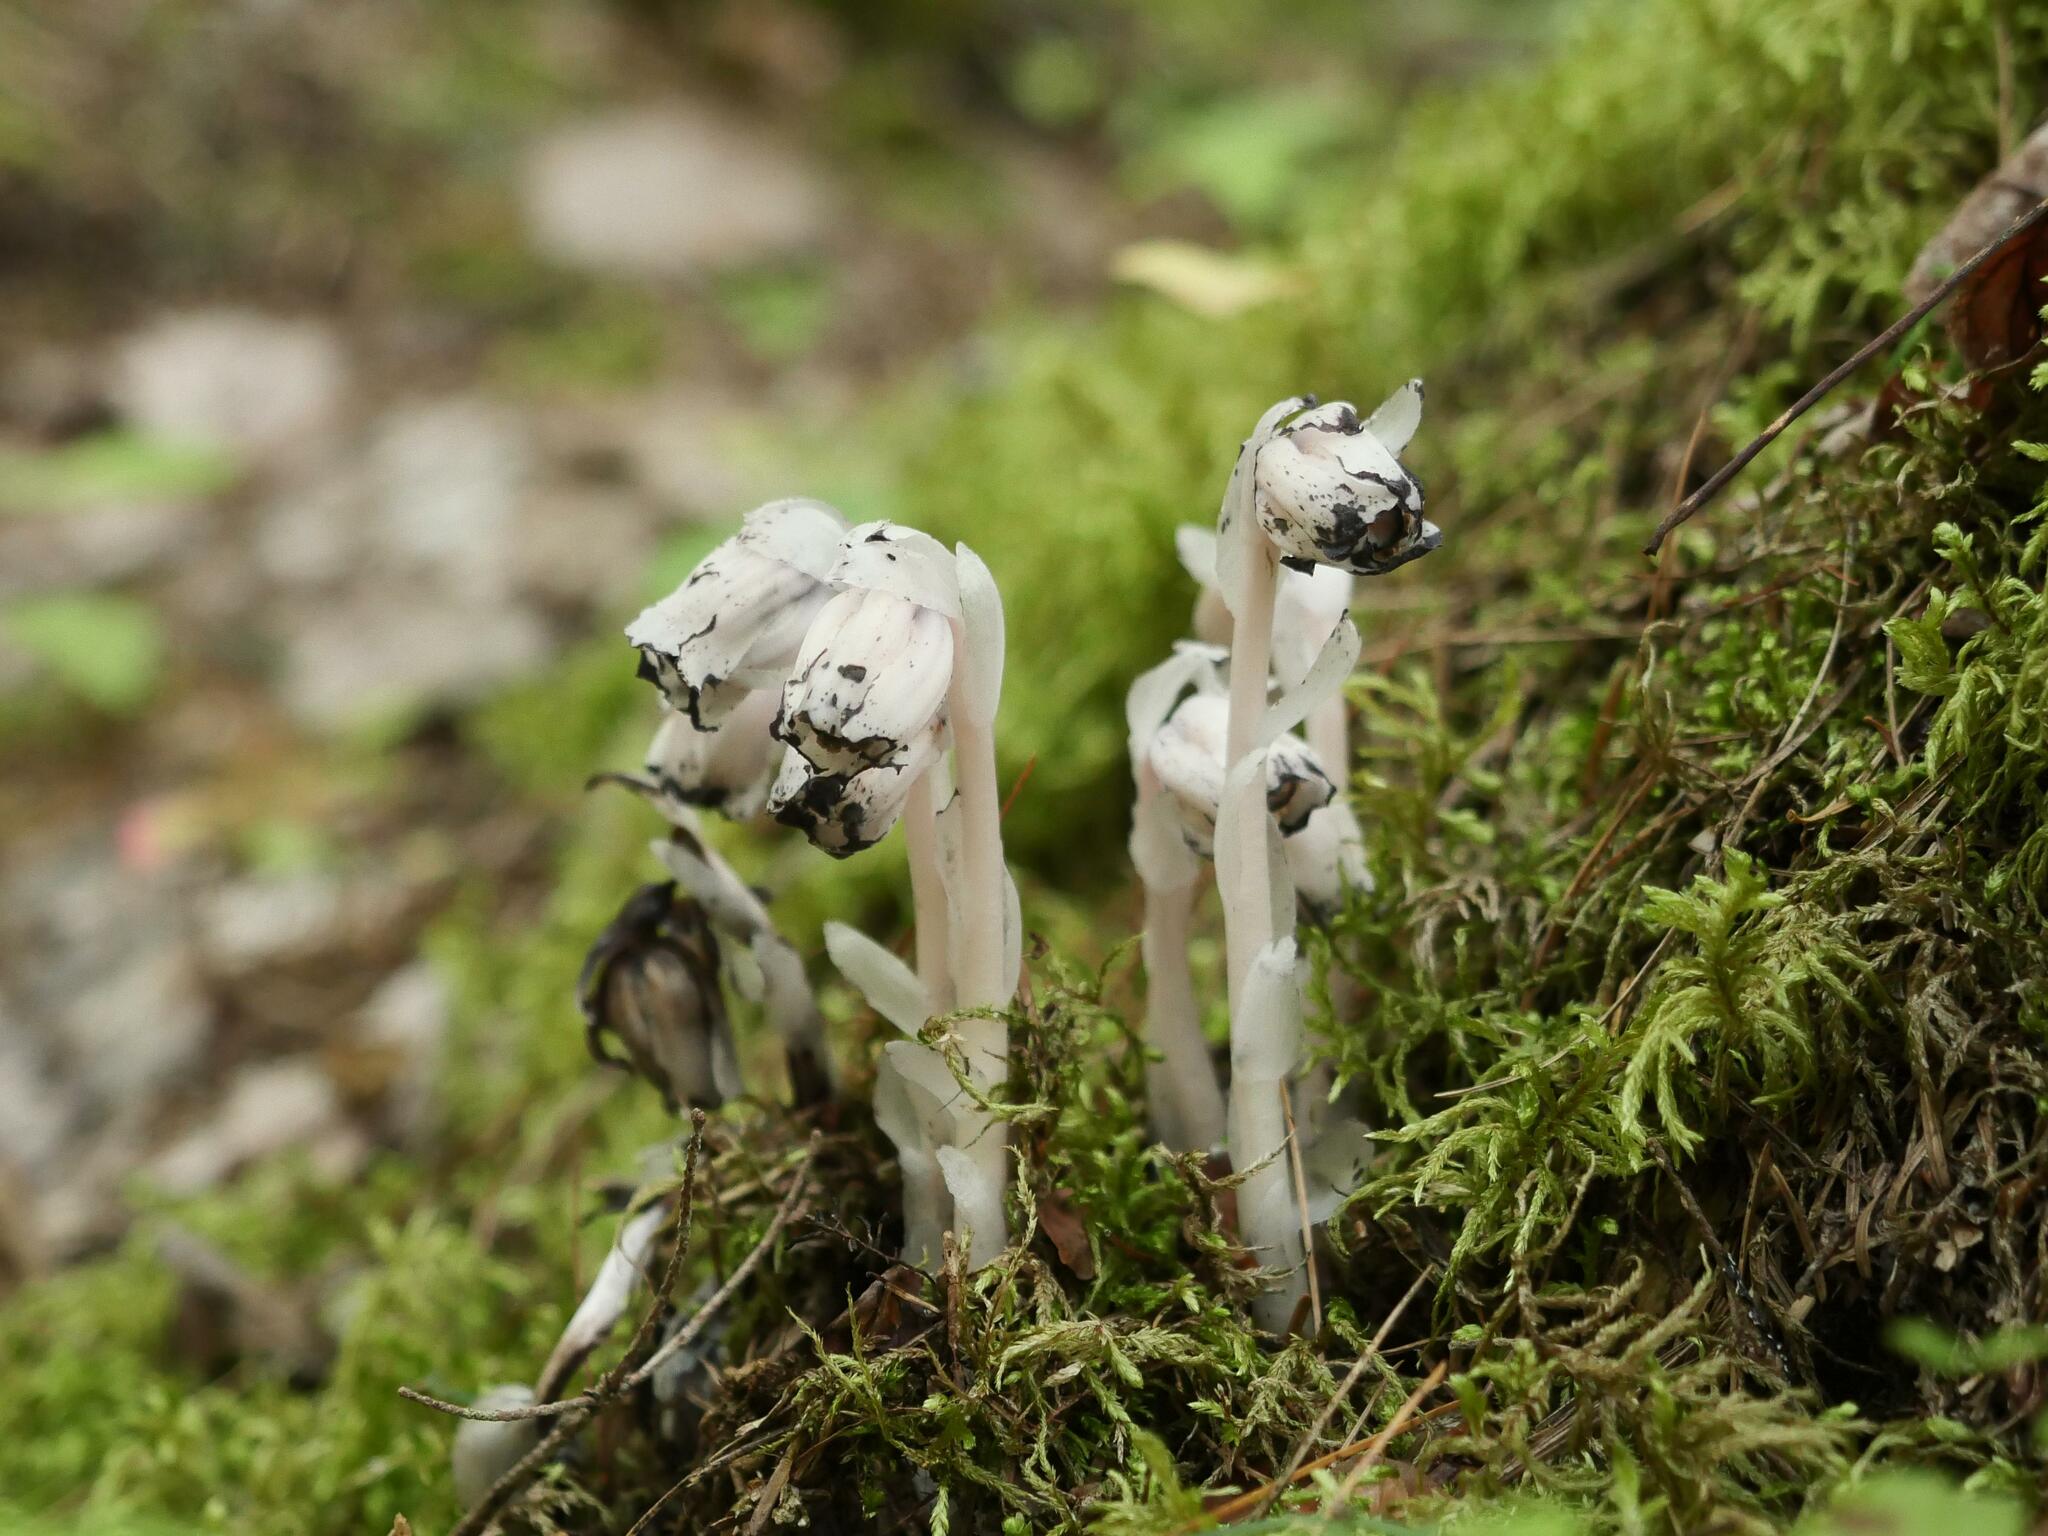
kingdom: Plantae
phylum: Tracheophyta
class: Magnoliopsida
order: Ericales
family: Ericaceae
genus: Monotropa
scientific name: Monotropa uniflora
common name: Convulsion root
